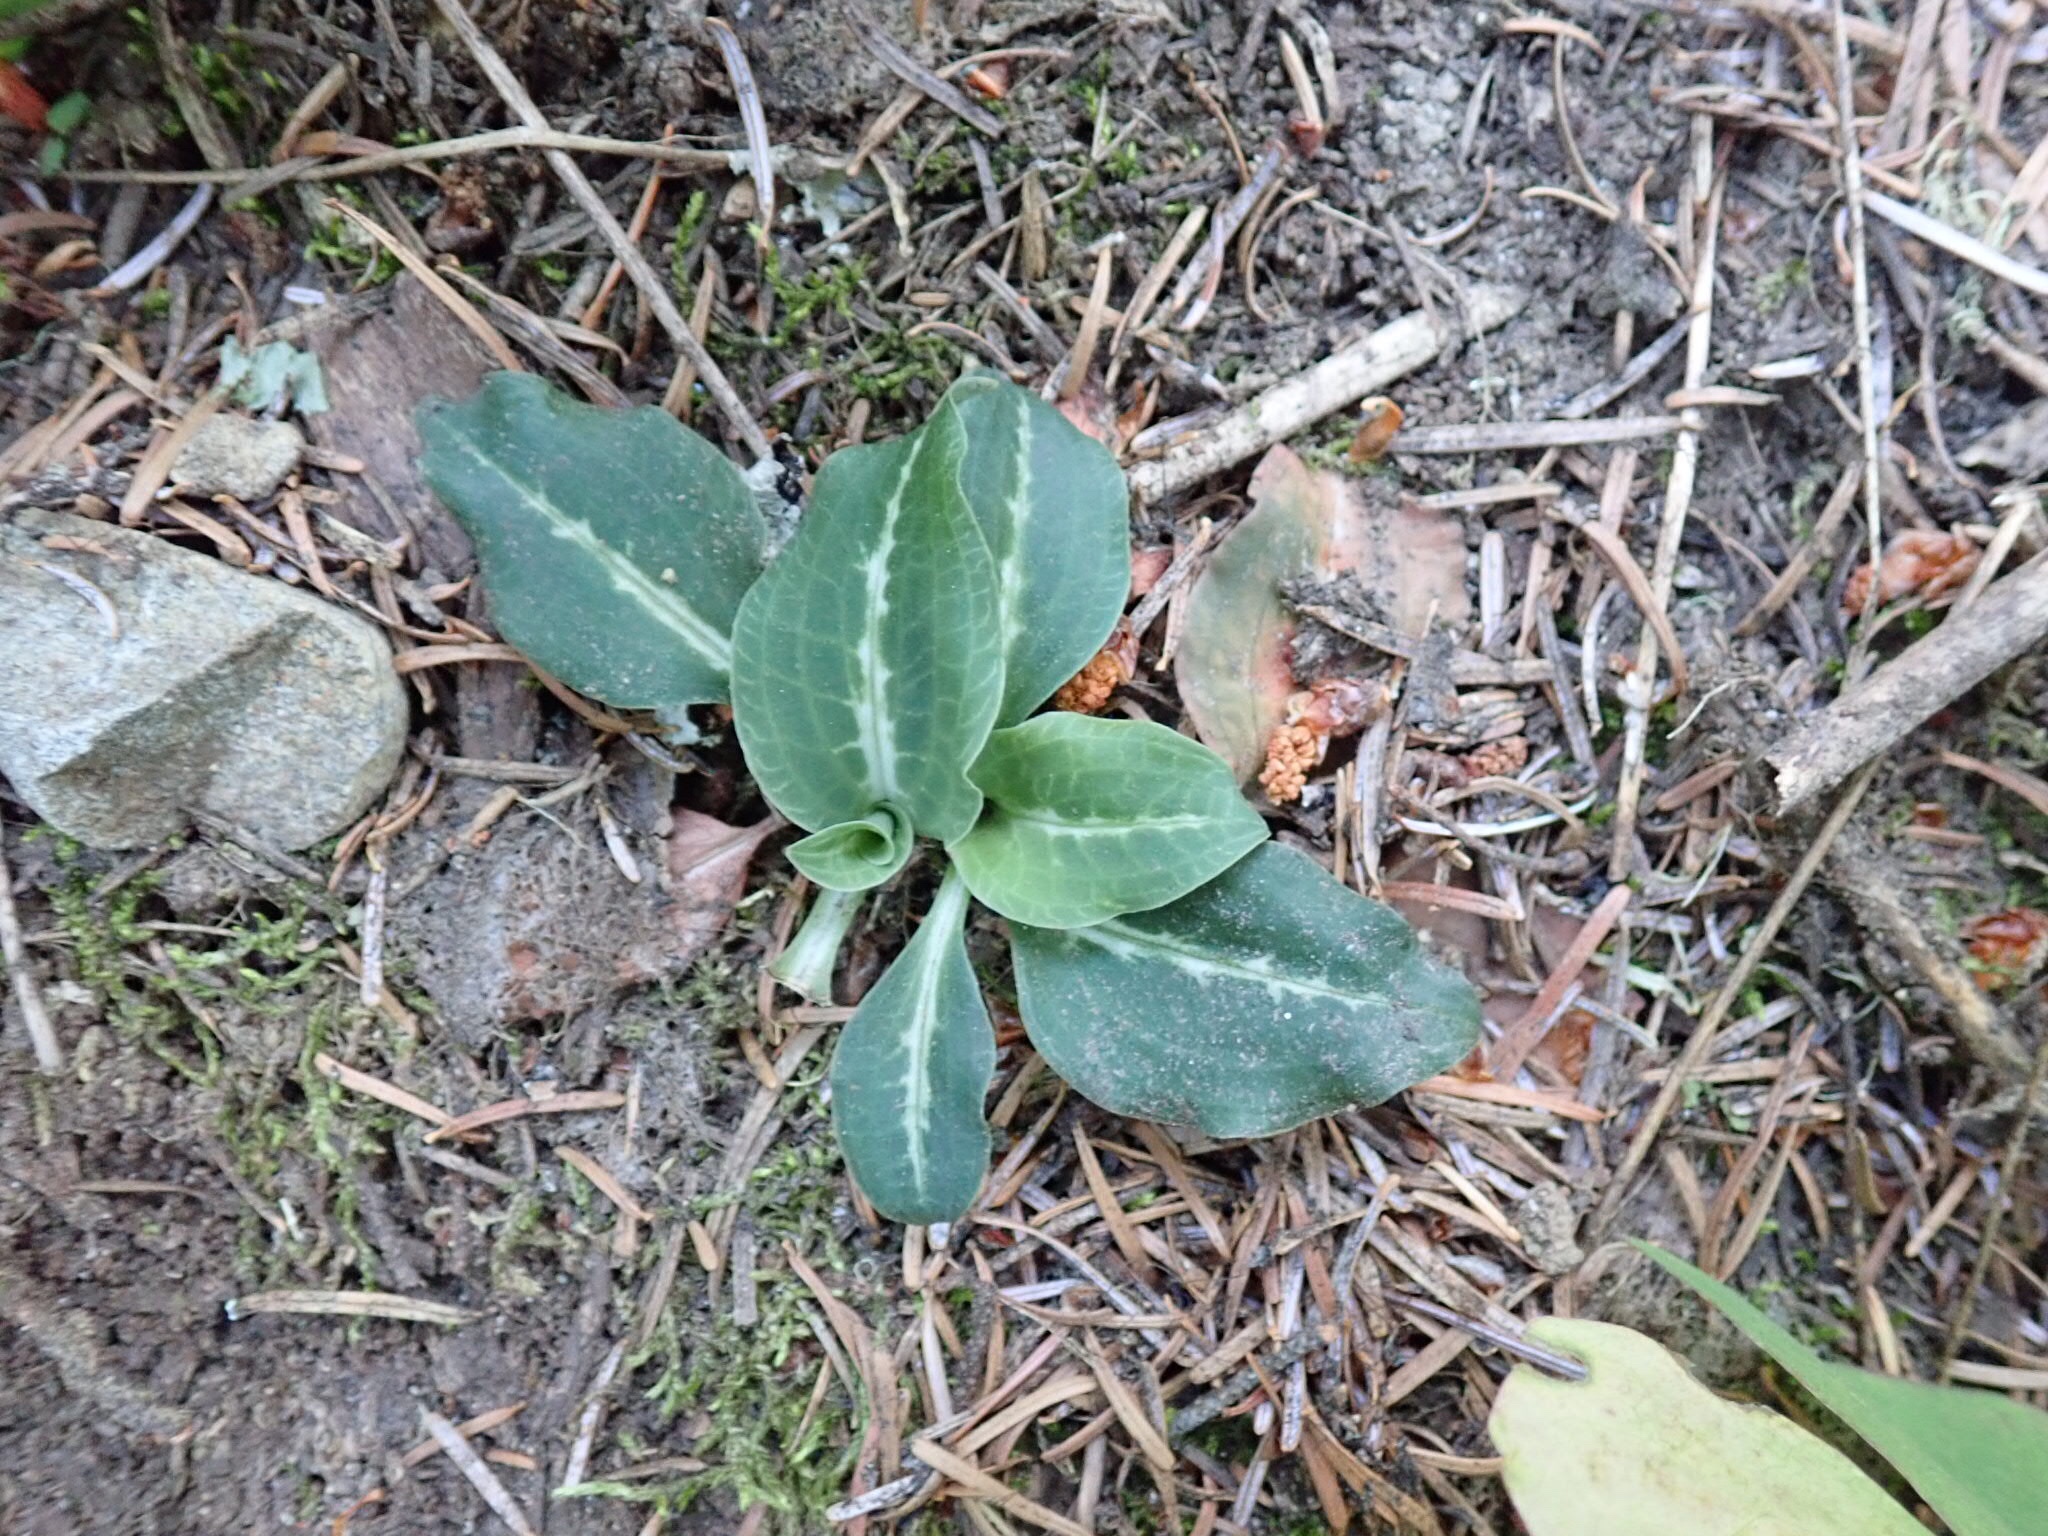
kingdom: Plantae
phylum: Tracheophyta
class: Liliopsida
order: Asparagales
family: Orchidaceae
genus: Goodyera
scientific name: Goodyera oblongifolia
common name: Giant rattlesnake-plantain
